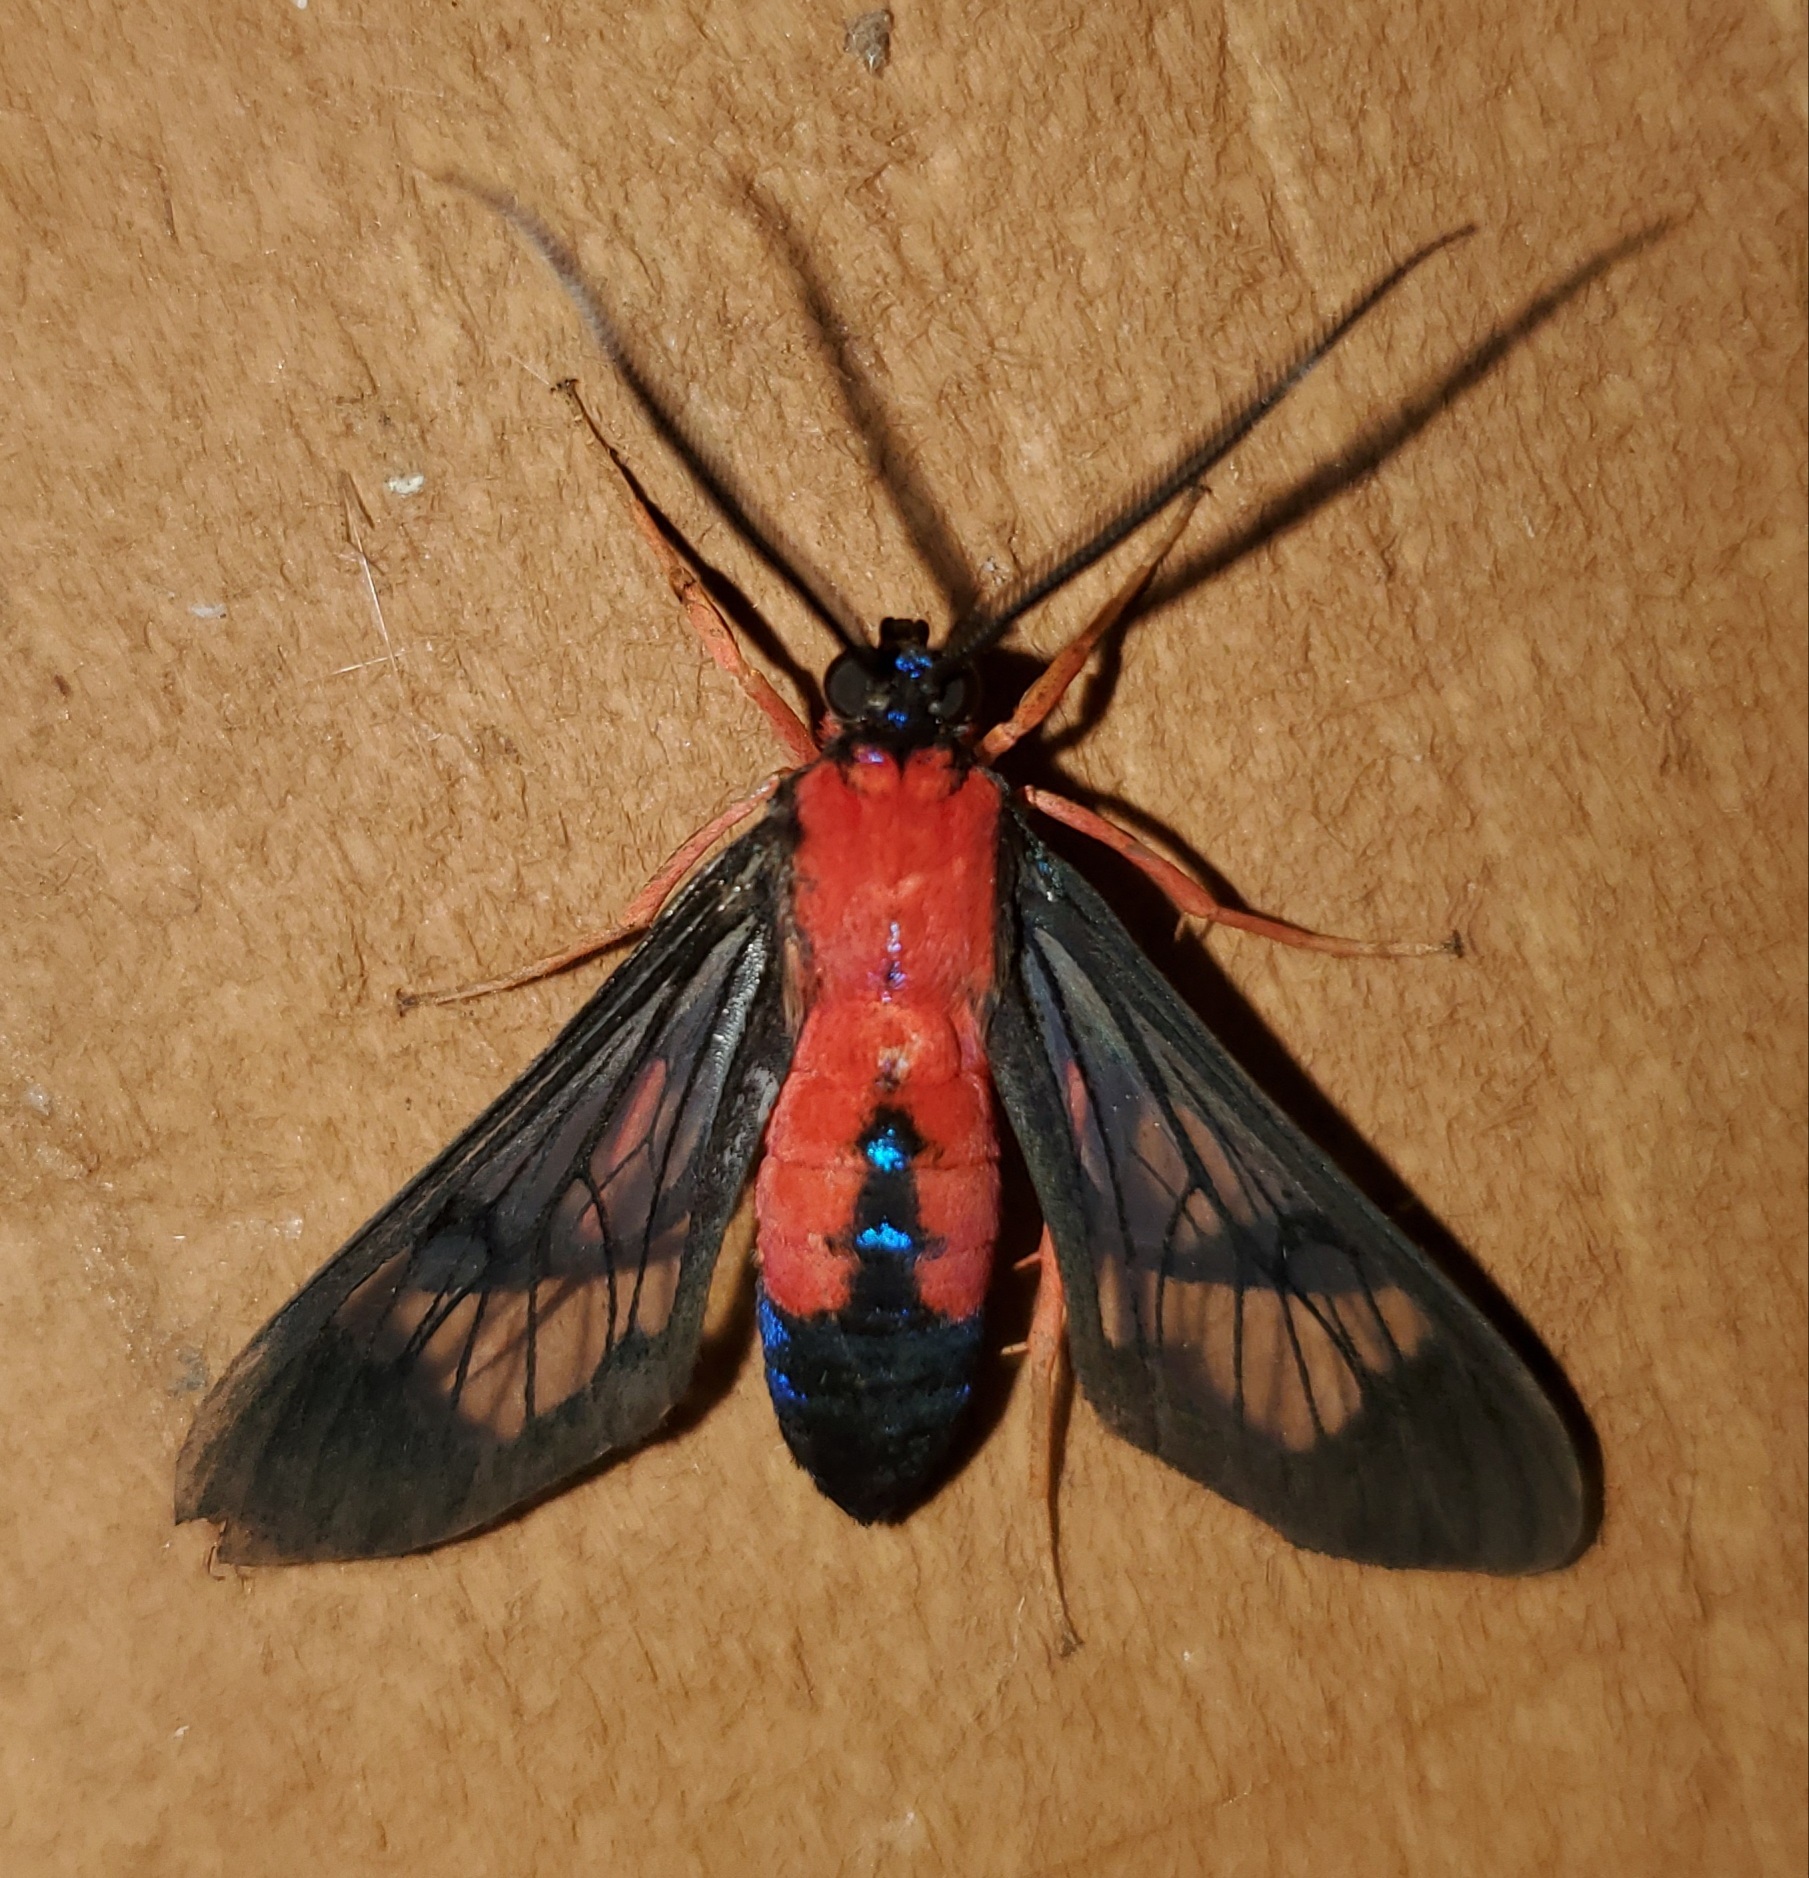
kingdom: Animalia
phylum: Arthropoda
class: Insecta
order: Lepidoptera
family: Erebidae
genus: Cosmosoma
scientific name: Cosmosoma myrodora
